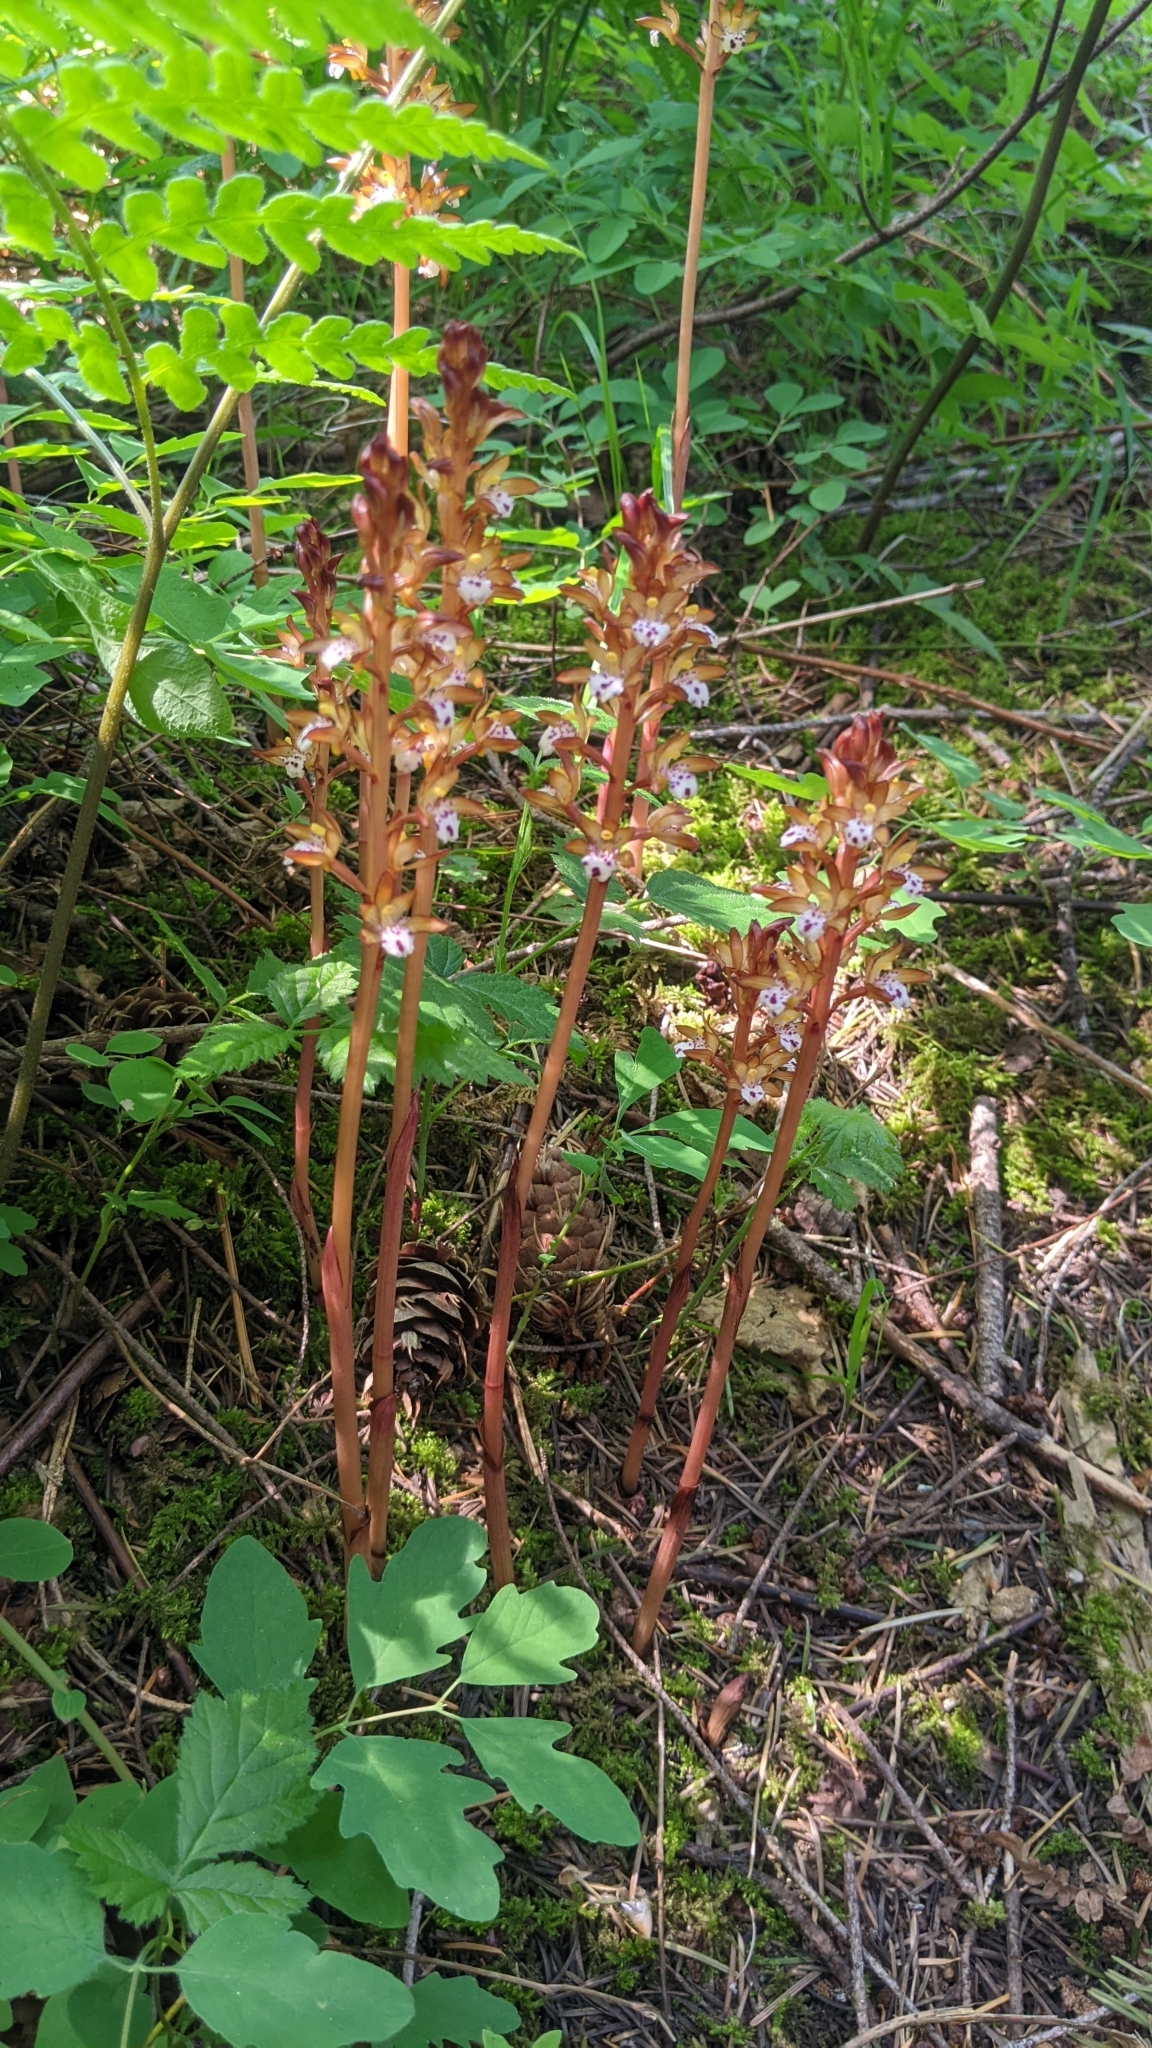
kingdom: Plantae
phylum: Tracheophyta
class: Liliopsida
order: Asparagales
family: Orchidaceae
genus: Corallorhiza
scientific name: Corallorhiza maculata
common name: Spotted coralroot
